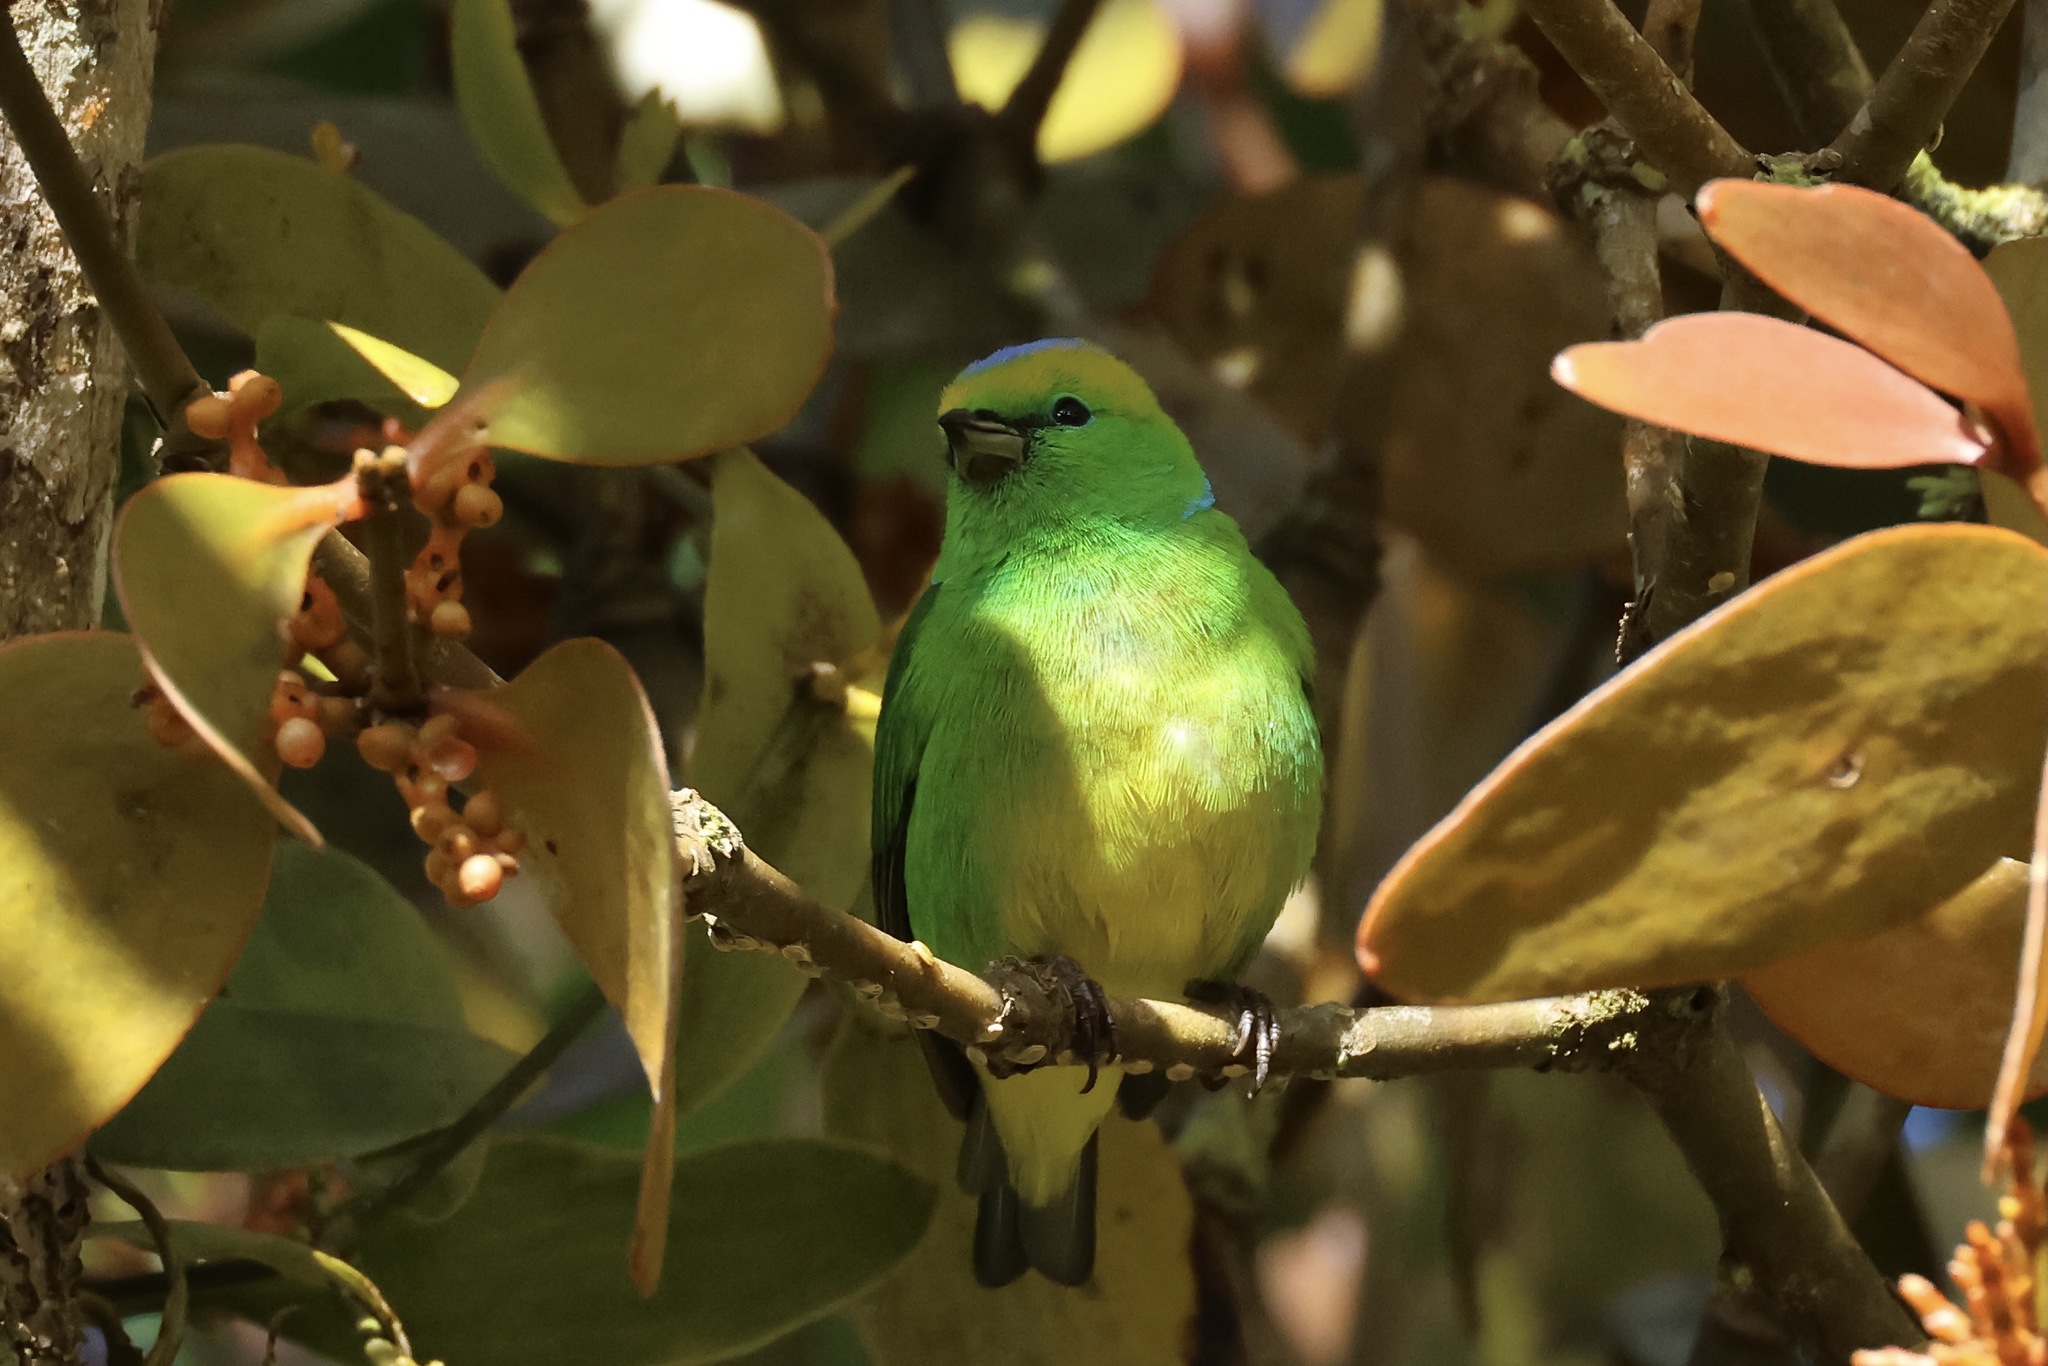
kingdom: Animalia
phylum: Chordata
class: Aves
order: Passeriformes
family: Fringillidae
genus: Chlorophonia
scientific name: Chlorophonia callophrys
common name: Golden-browed chlorophonia
